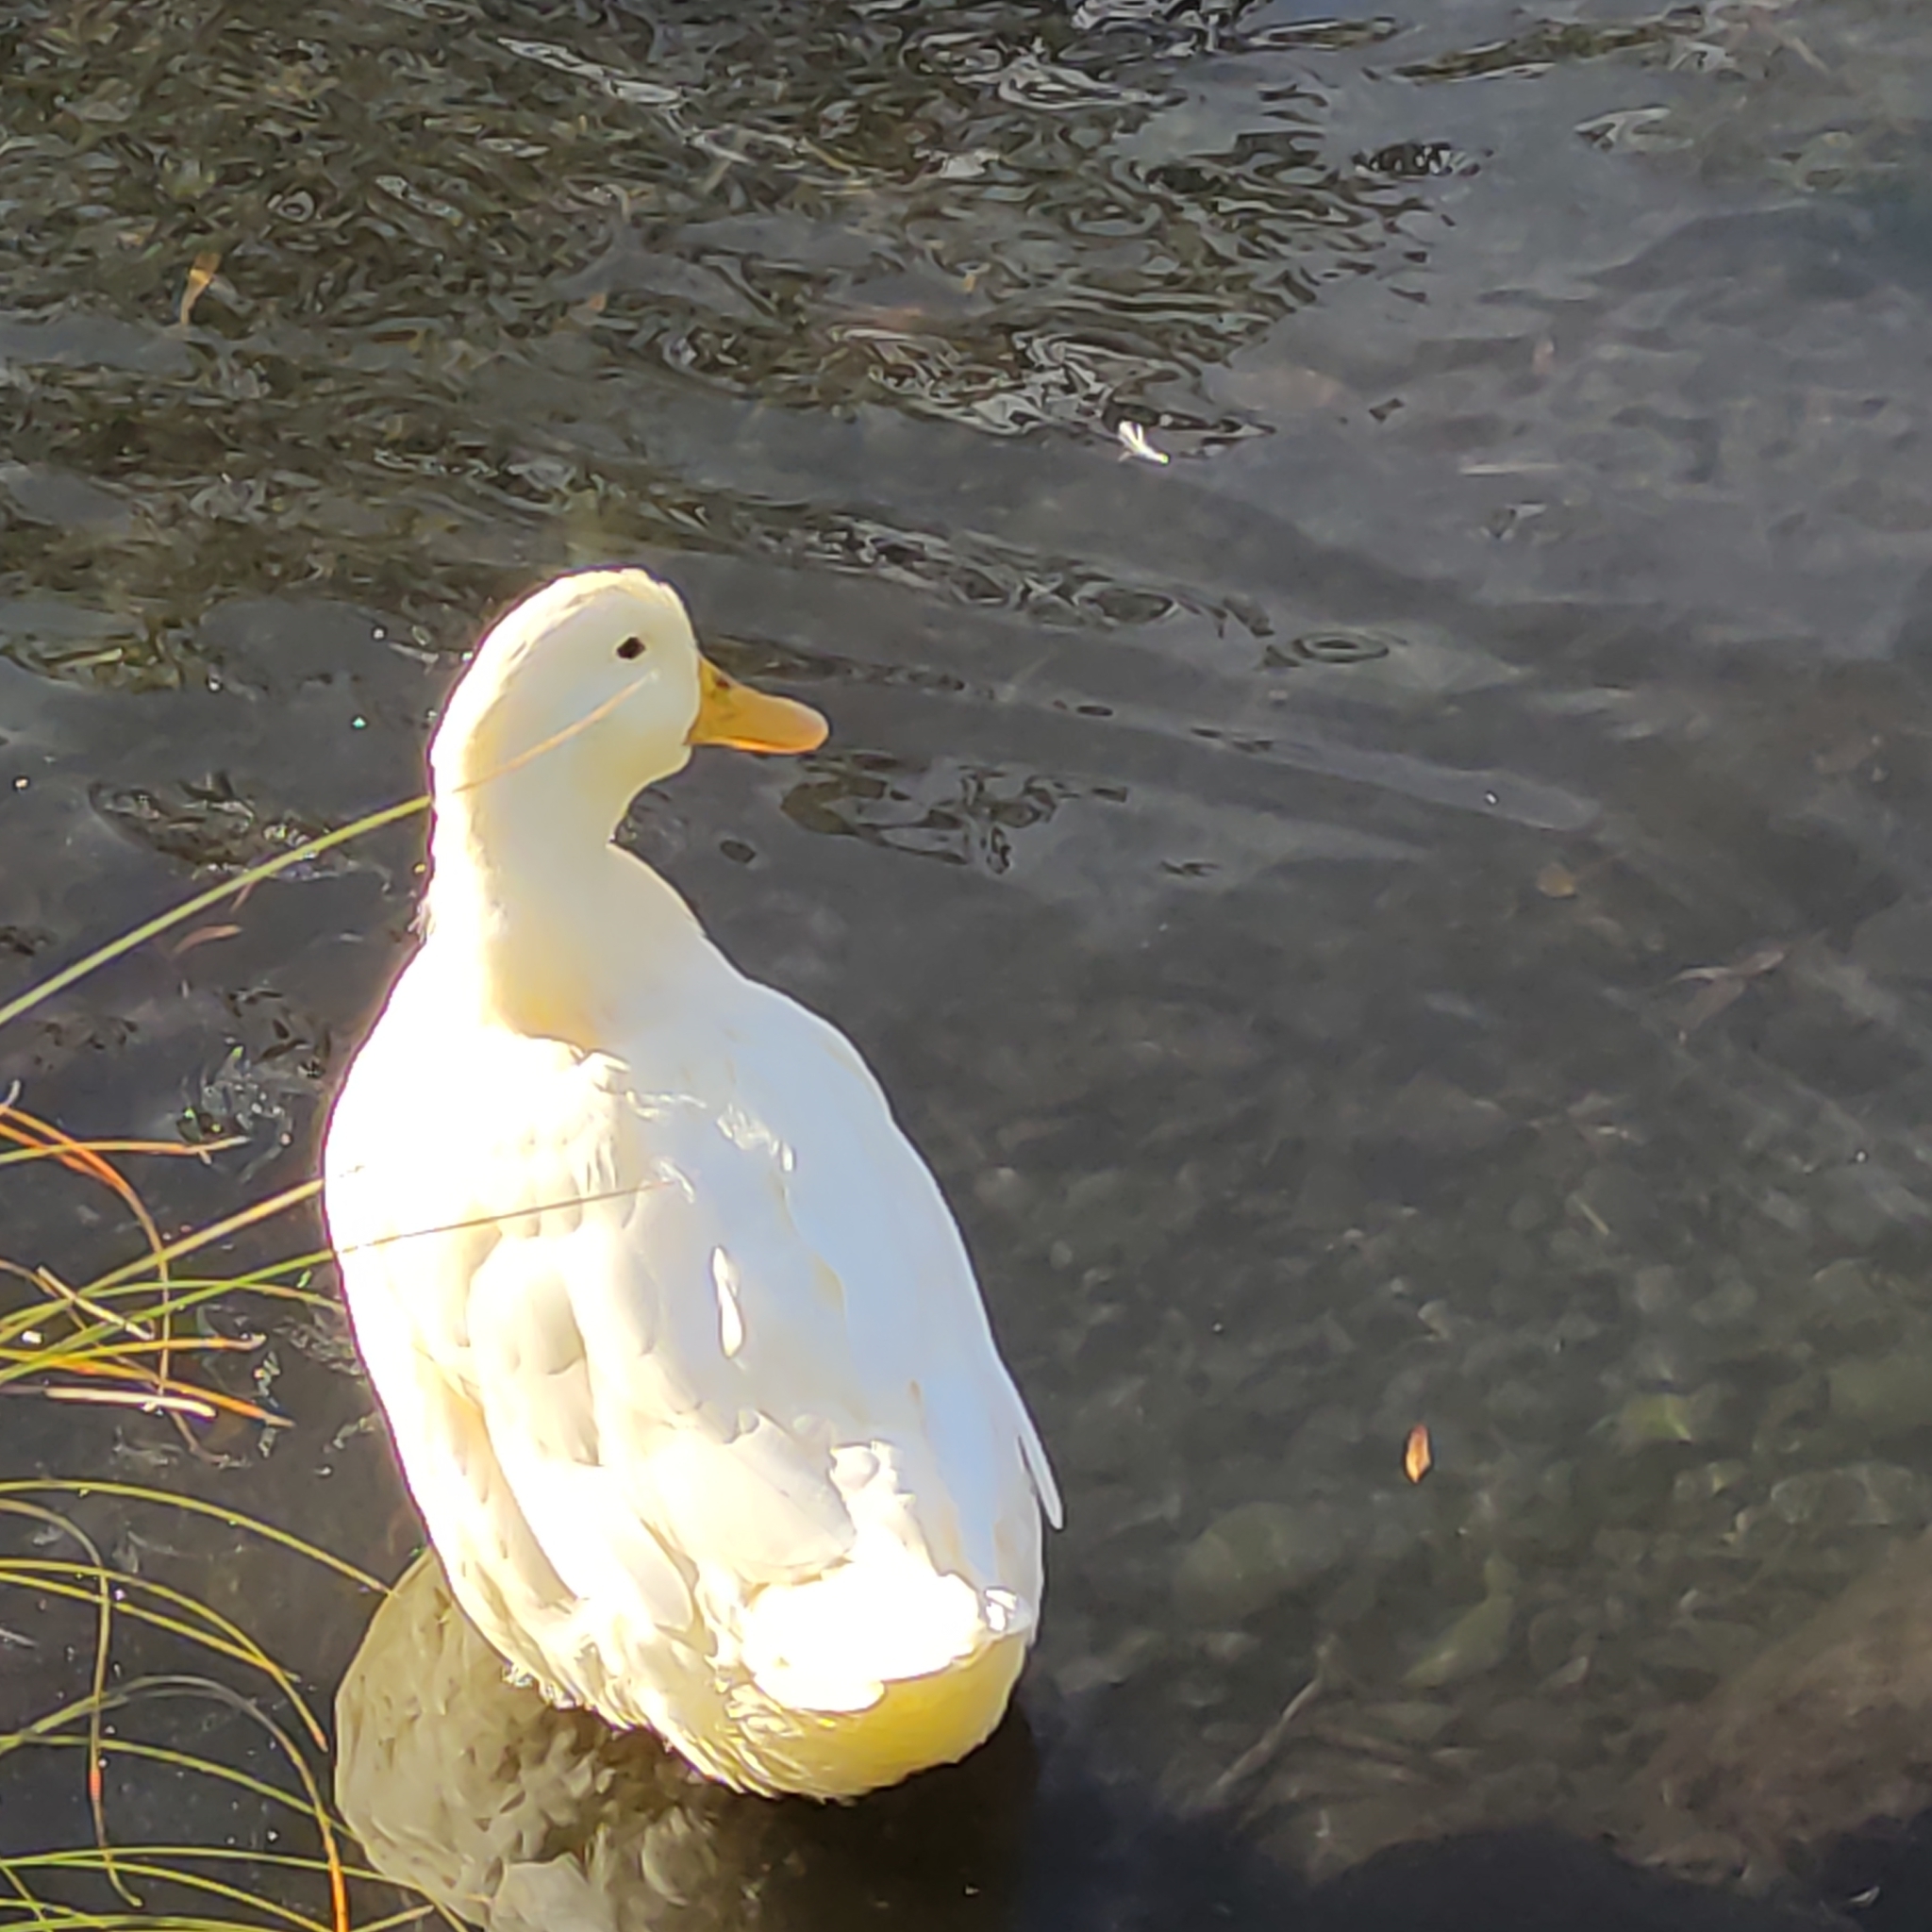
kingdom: Animalia
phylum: Chordata
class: Aves
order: Anseriformes
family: Anatidae
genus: Anas
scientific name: Anas platyrhynchos
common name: Mallard
